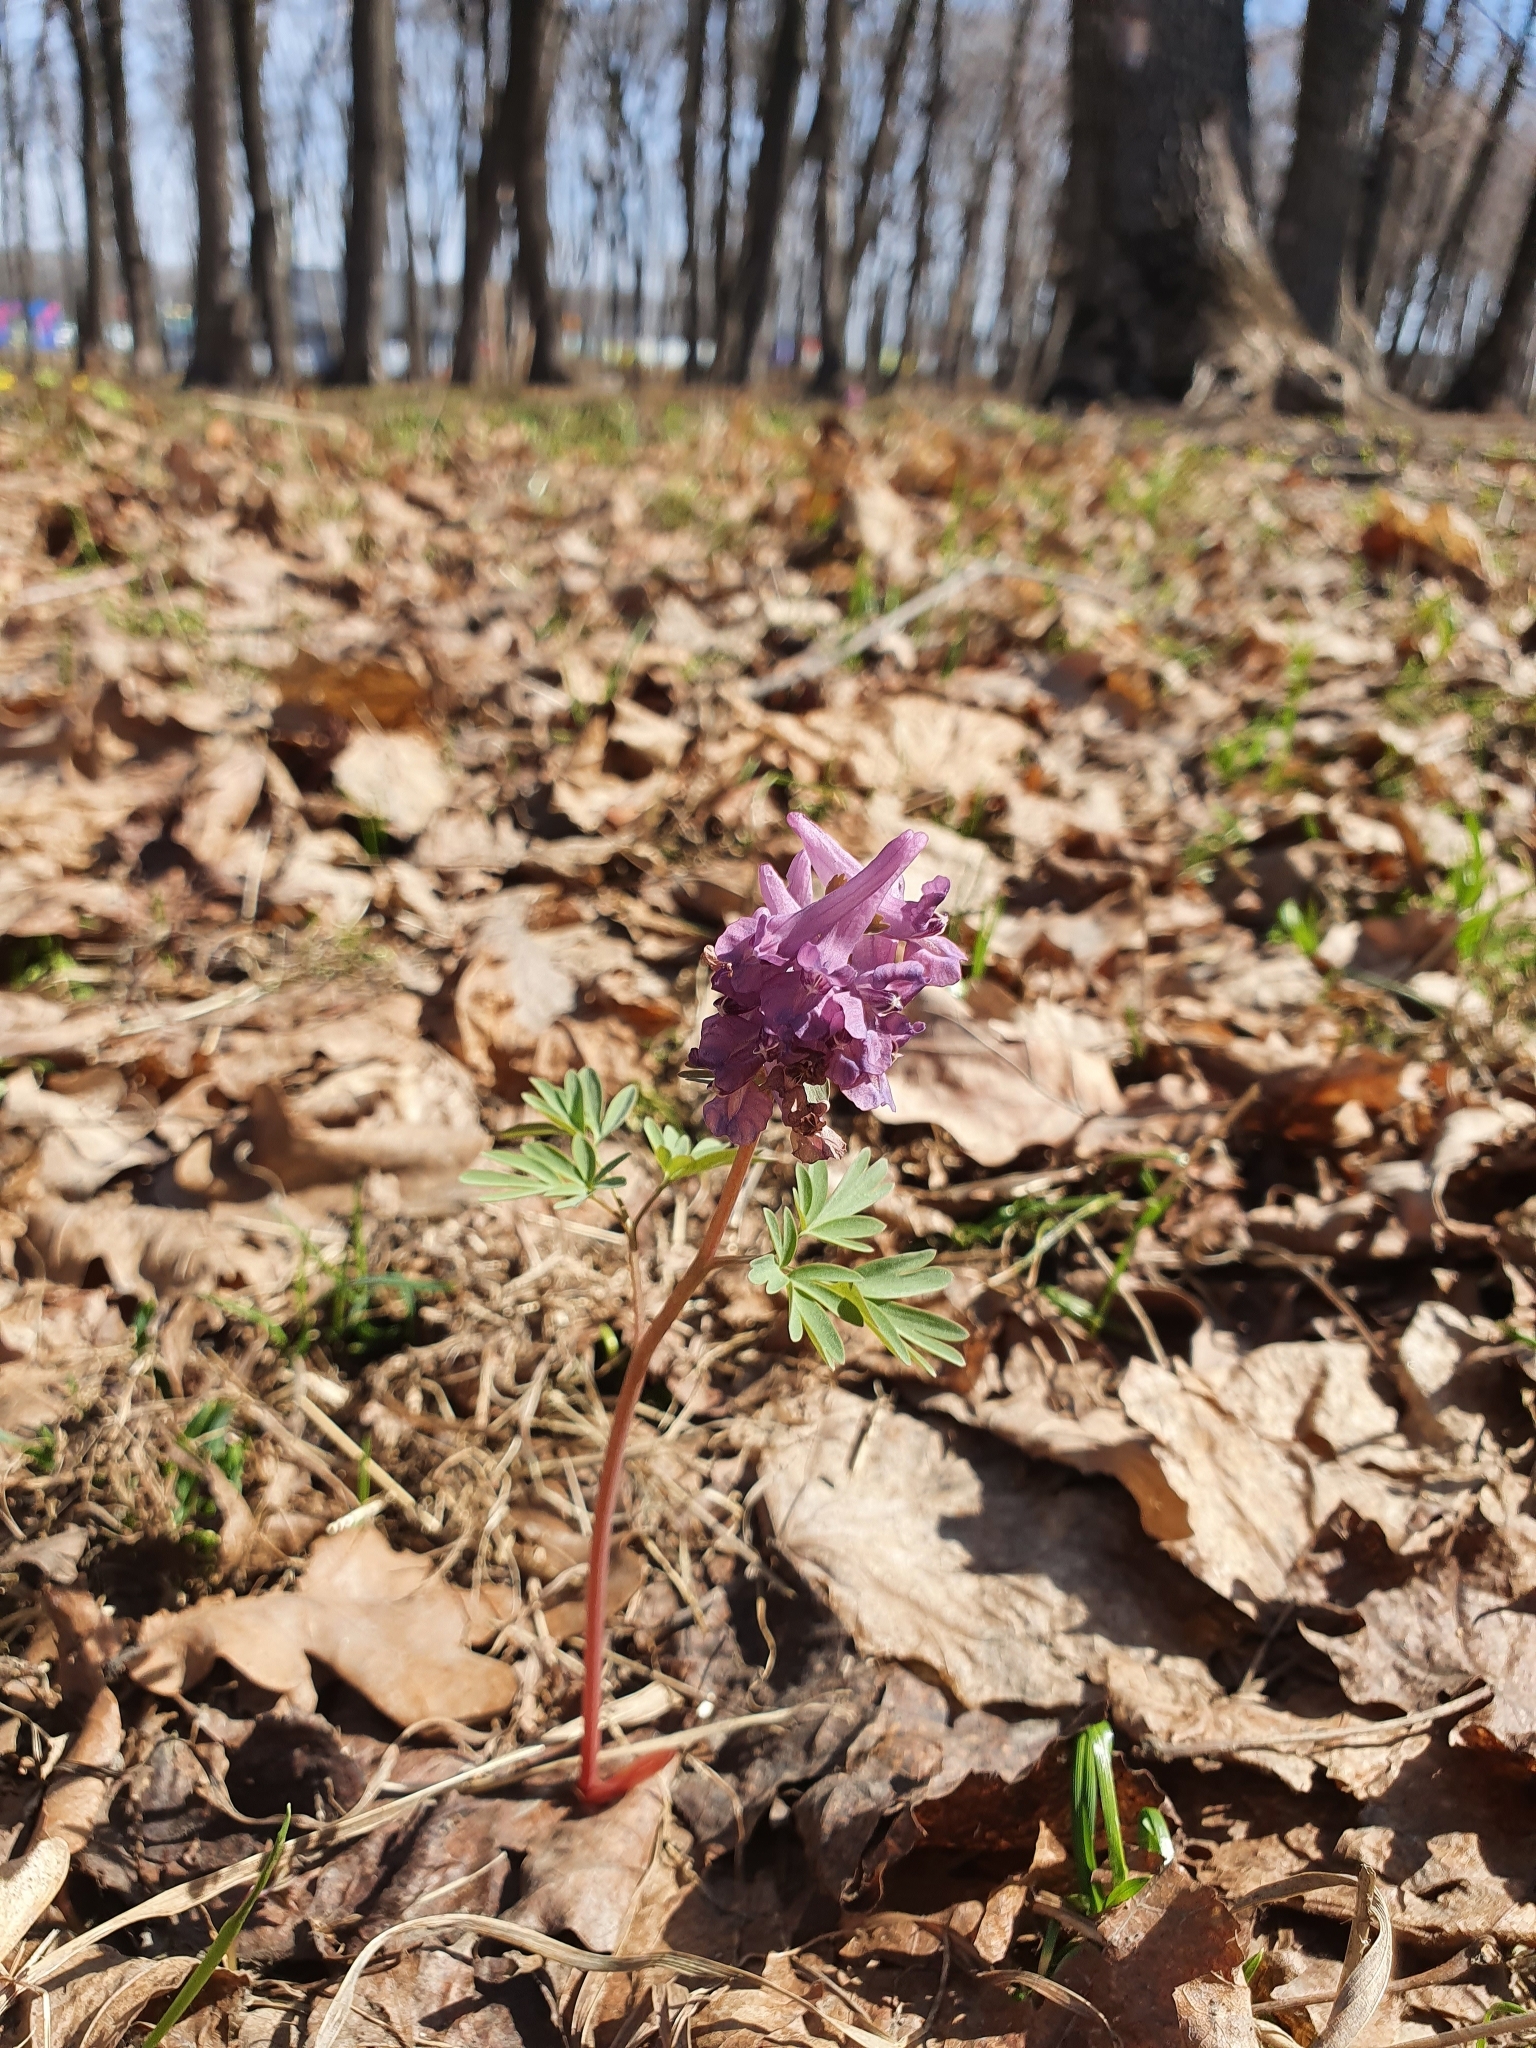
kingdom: Plantae
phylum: Tracheophyta
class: Magnoliopsida
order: Ranunculales
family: Papaveraceae
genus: Corydalis
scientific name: Corydalis solida
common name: Bird-in-a-bush
